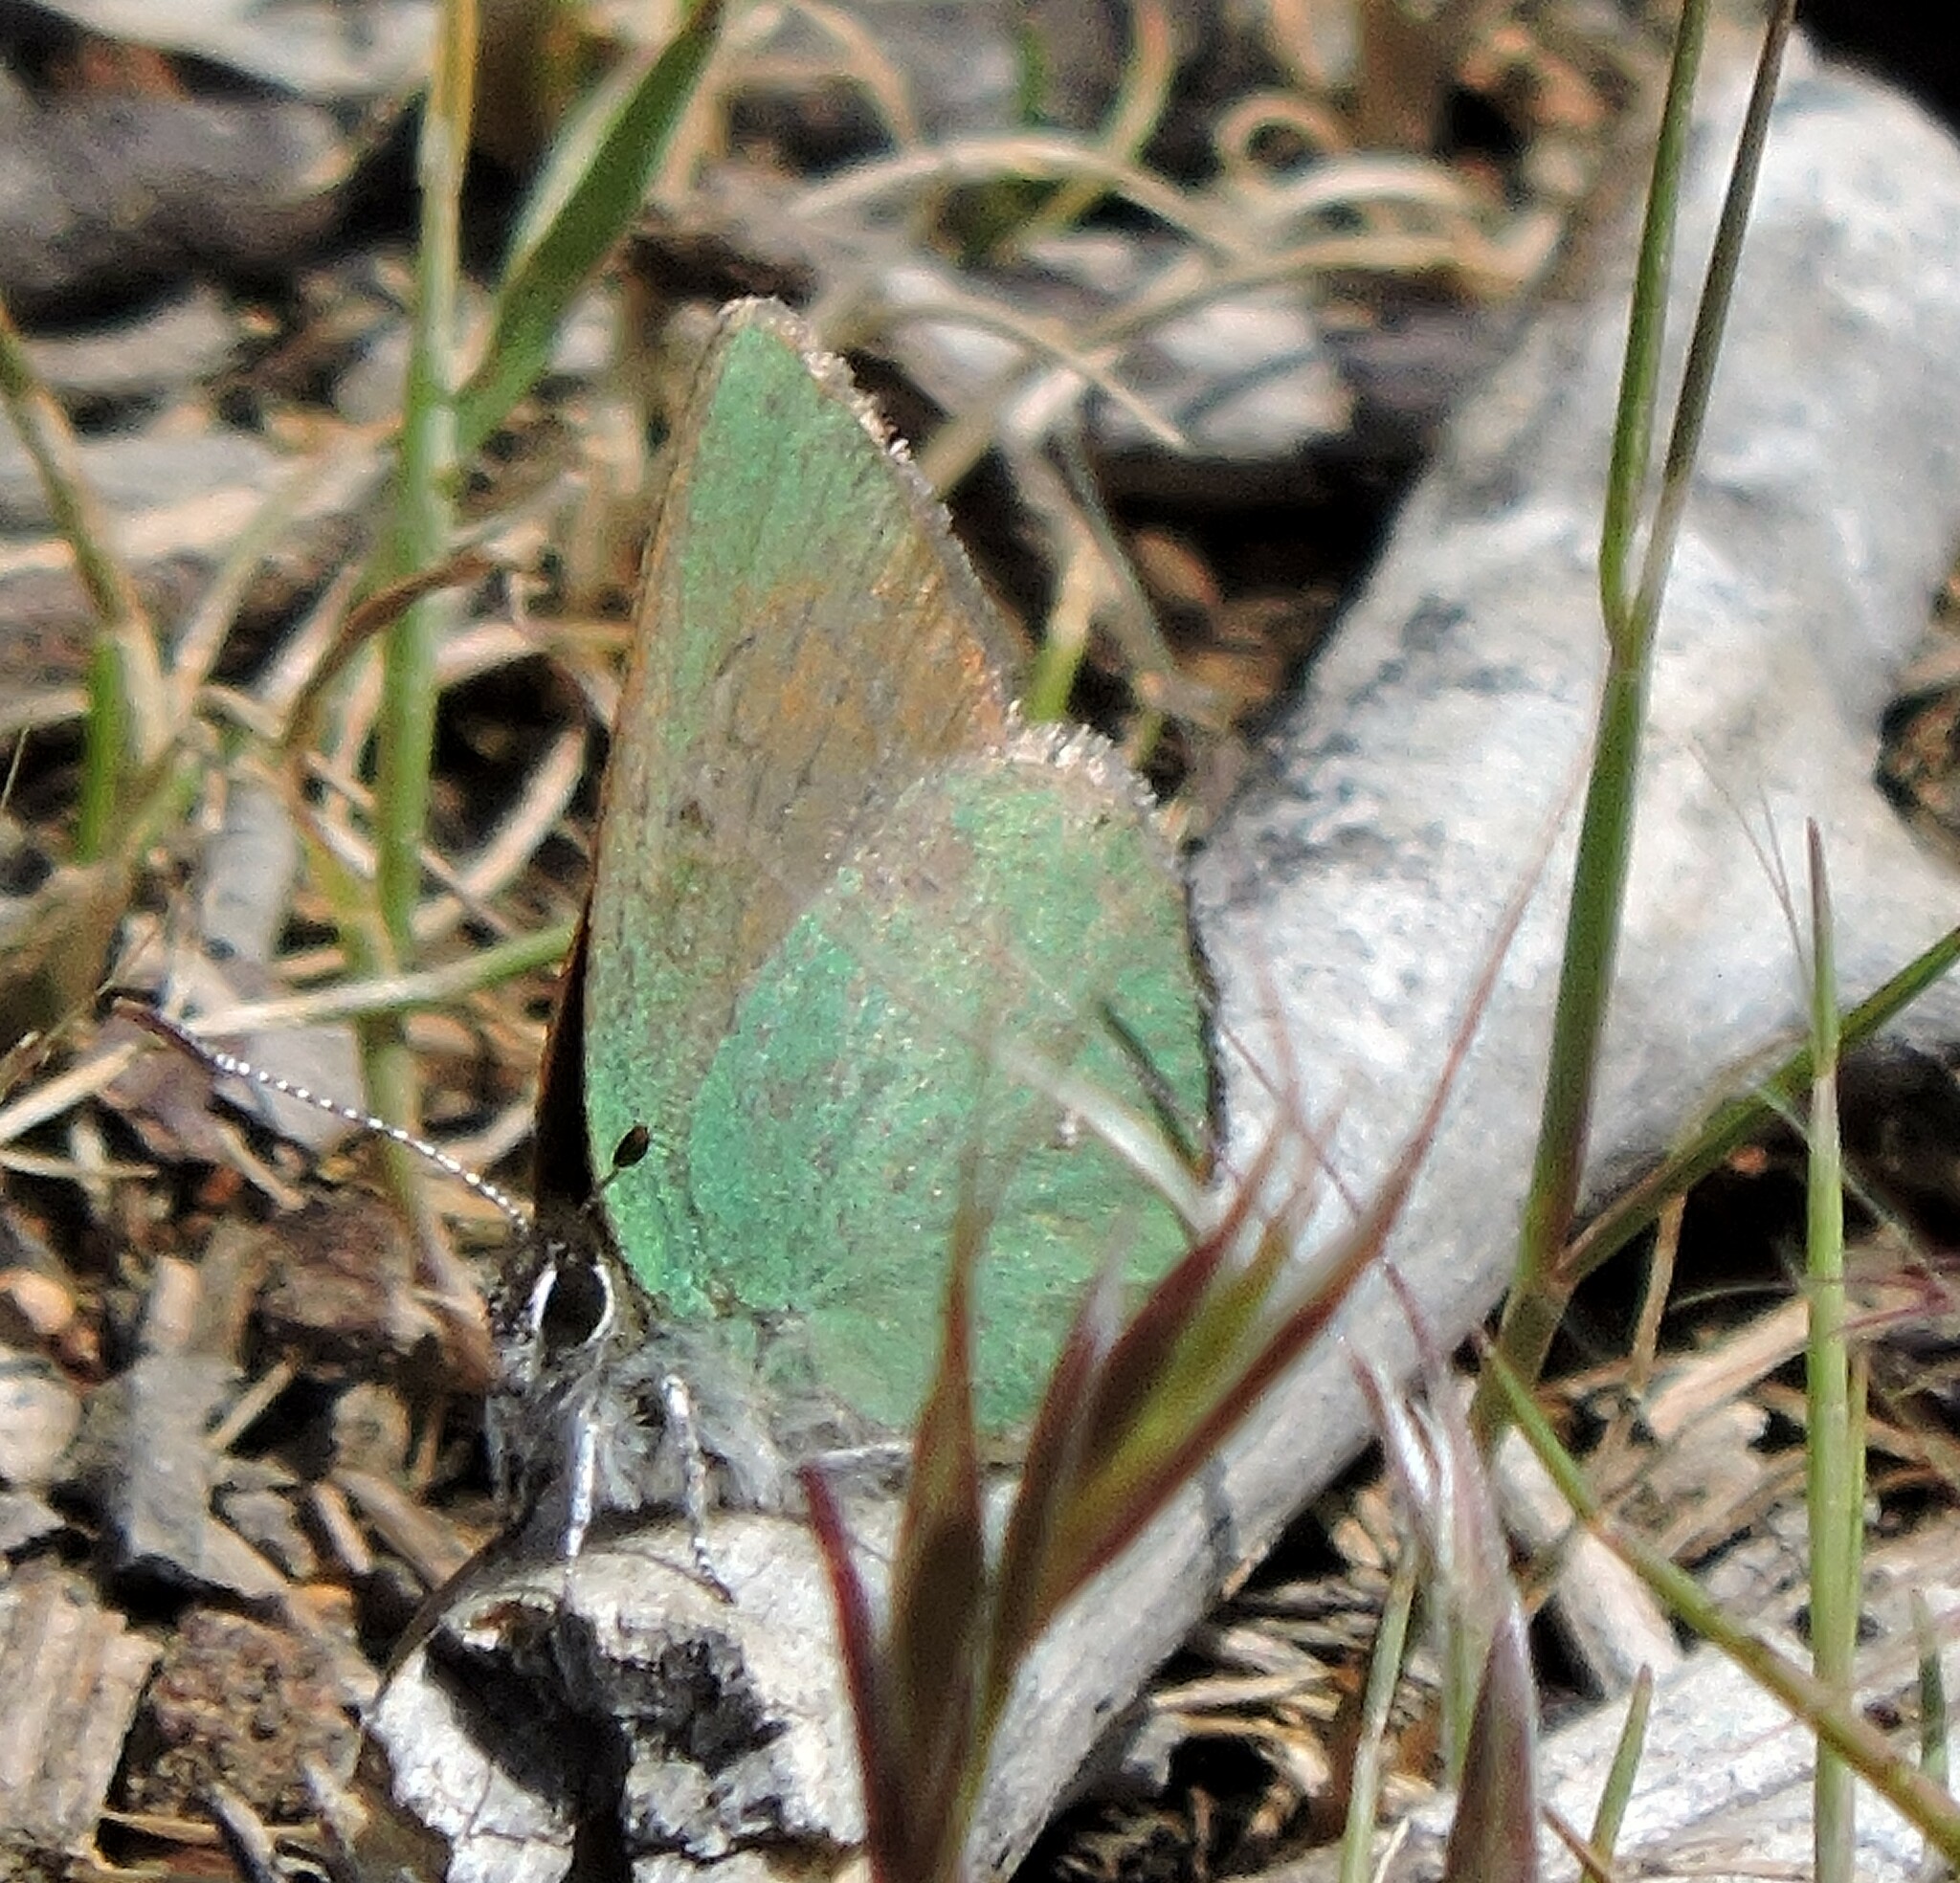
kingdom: Animalia
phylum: Arthropoda
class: Insecta
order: Lepidoptera
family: Lycaenidae
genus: Callophrys
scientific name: Callophrys dumetorum
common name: Bramble hairstreak
